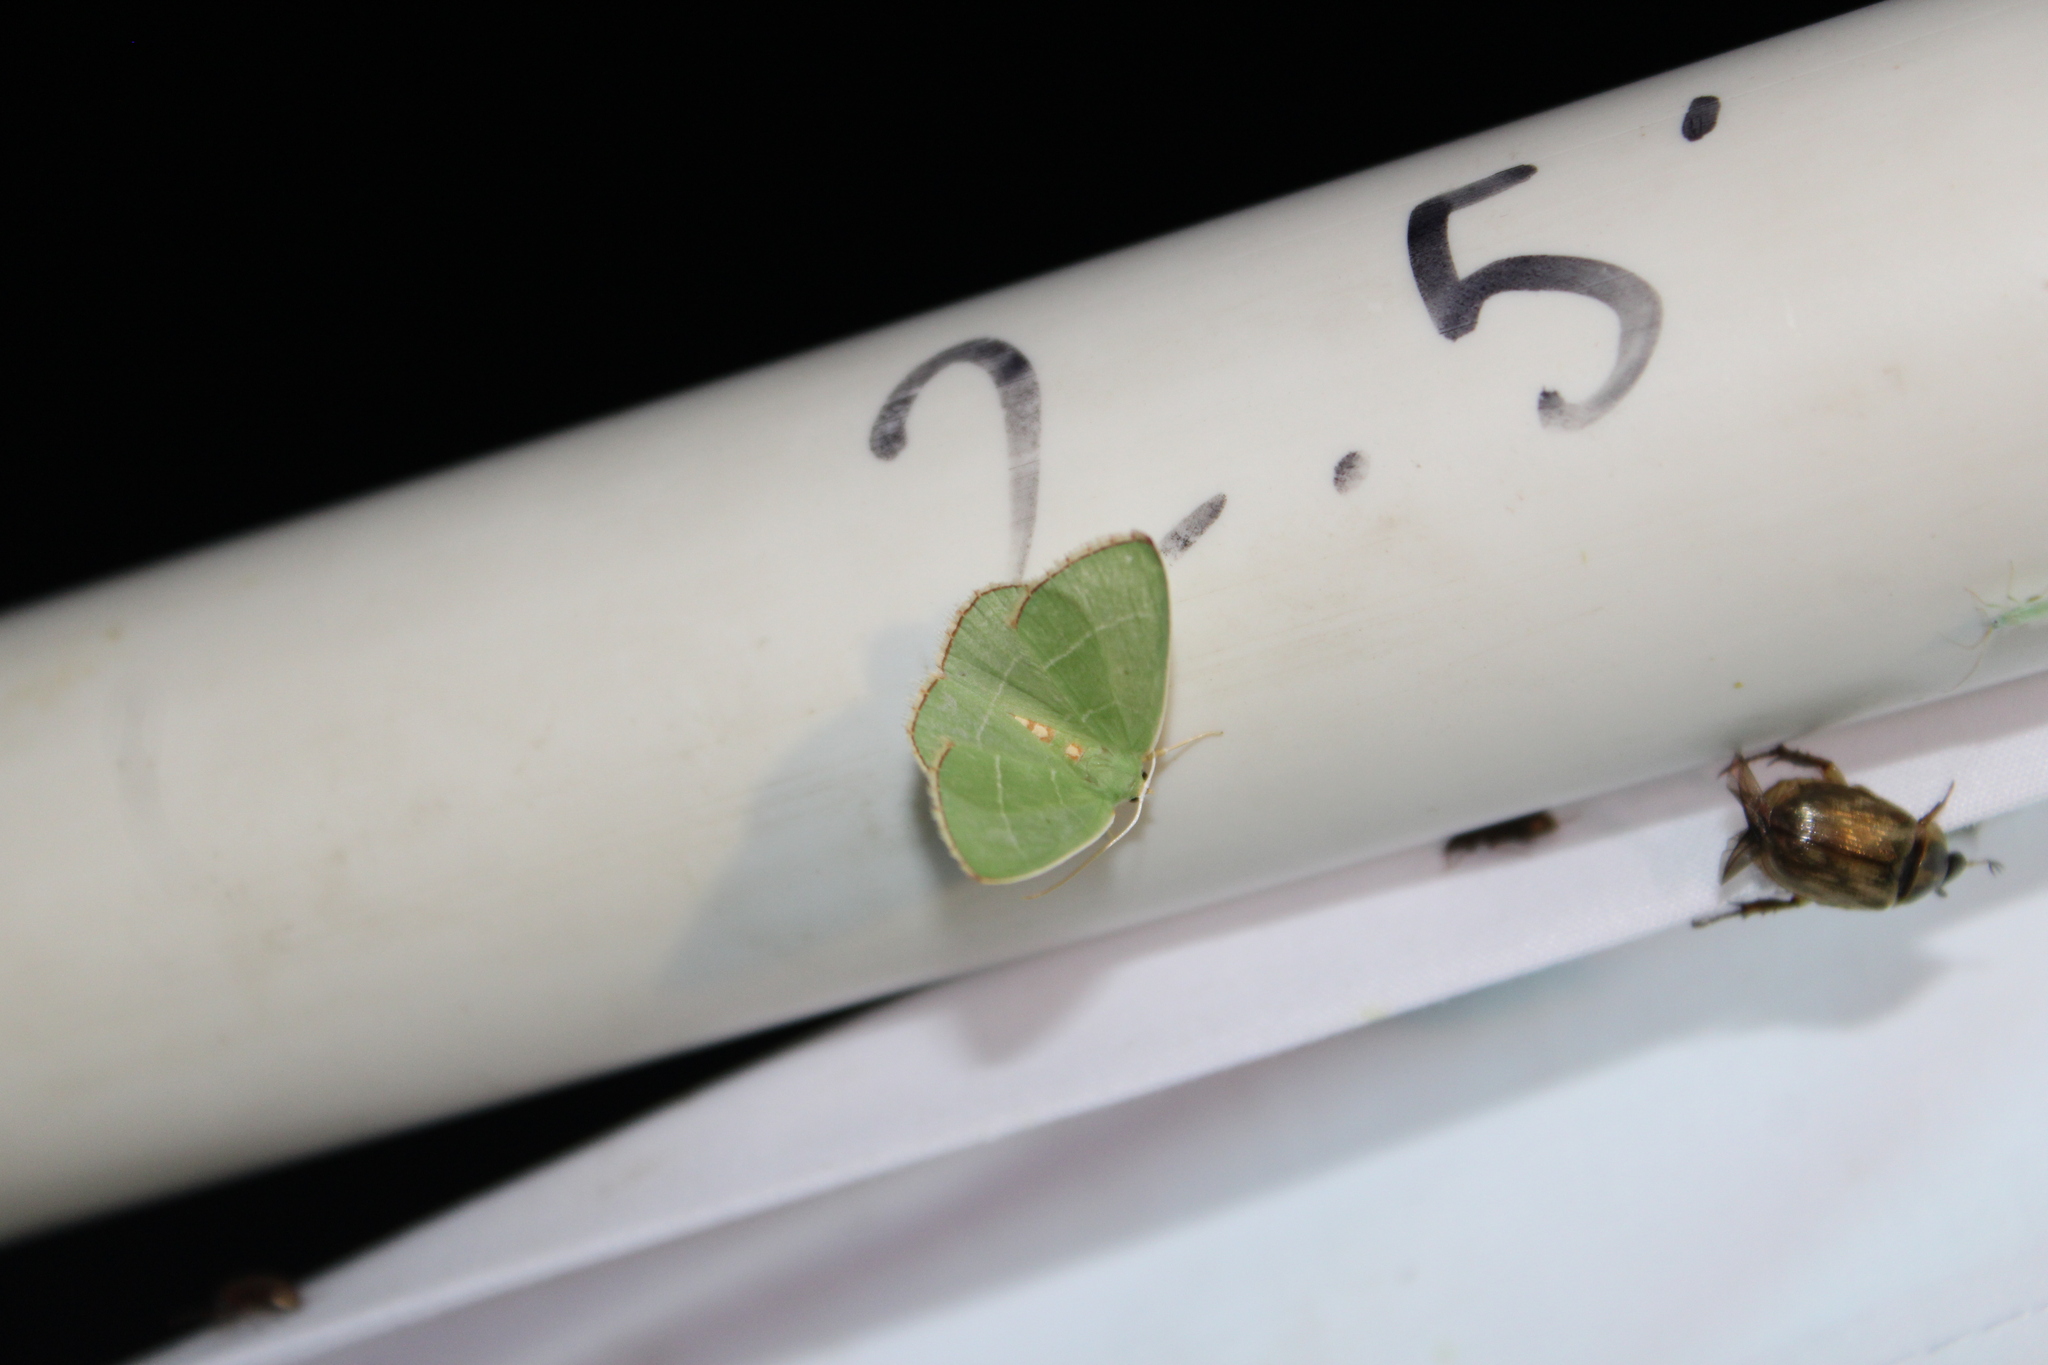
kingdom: Animalia
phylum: Arthropoda
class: Insecta
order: Lepidoptera
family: Geometridae
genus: Nemoria
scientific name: Nemoria bistriaria
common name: Red-fringed emerald
